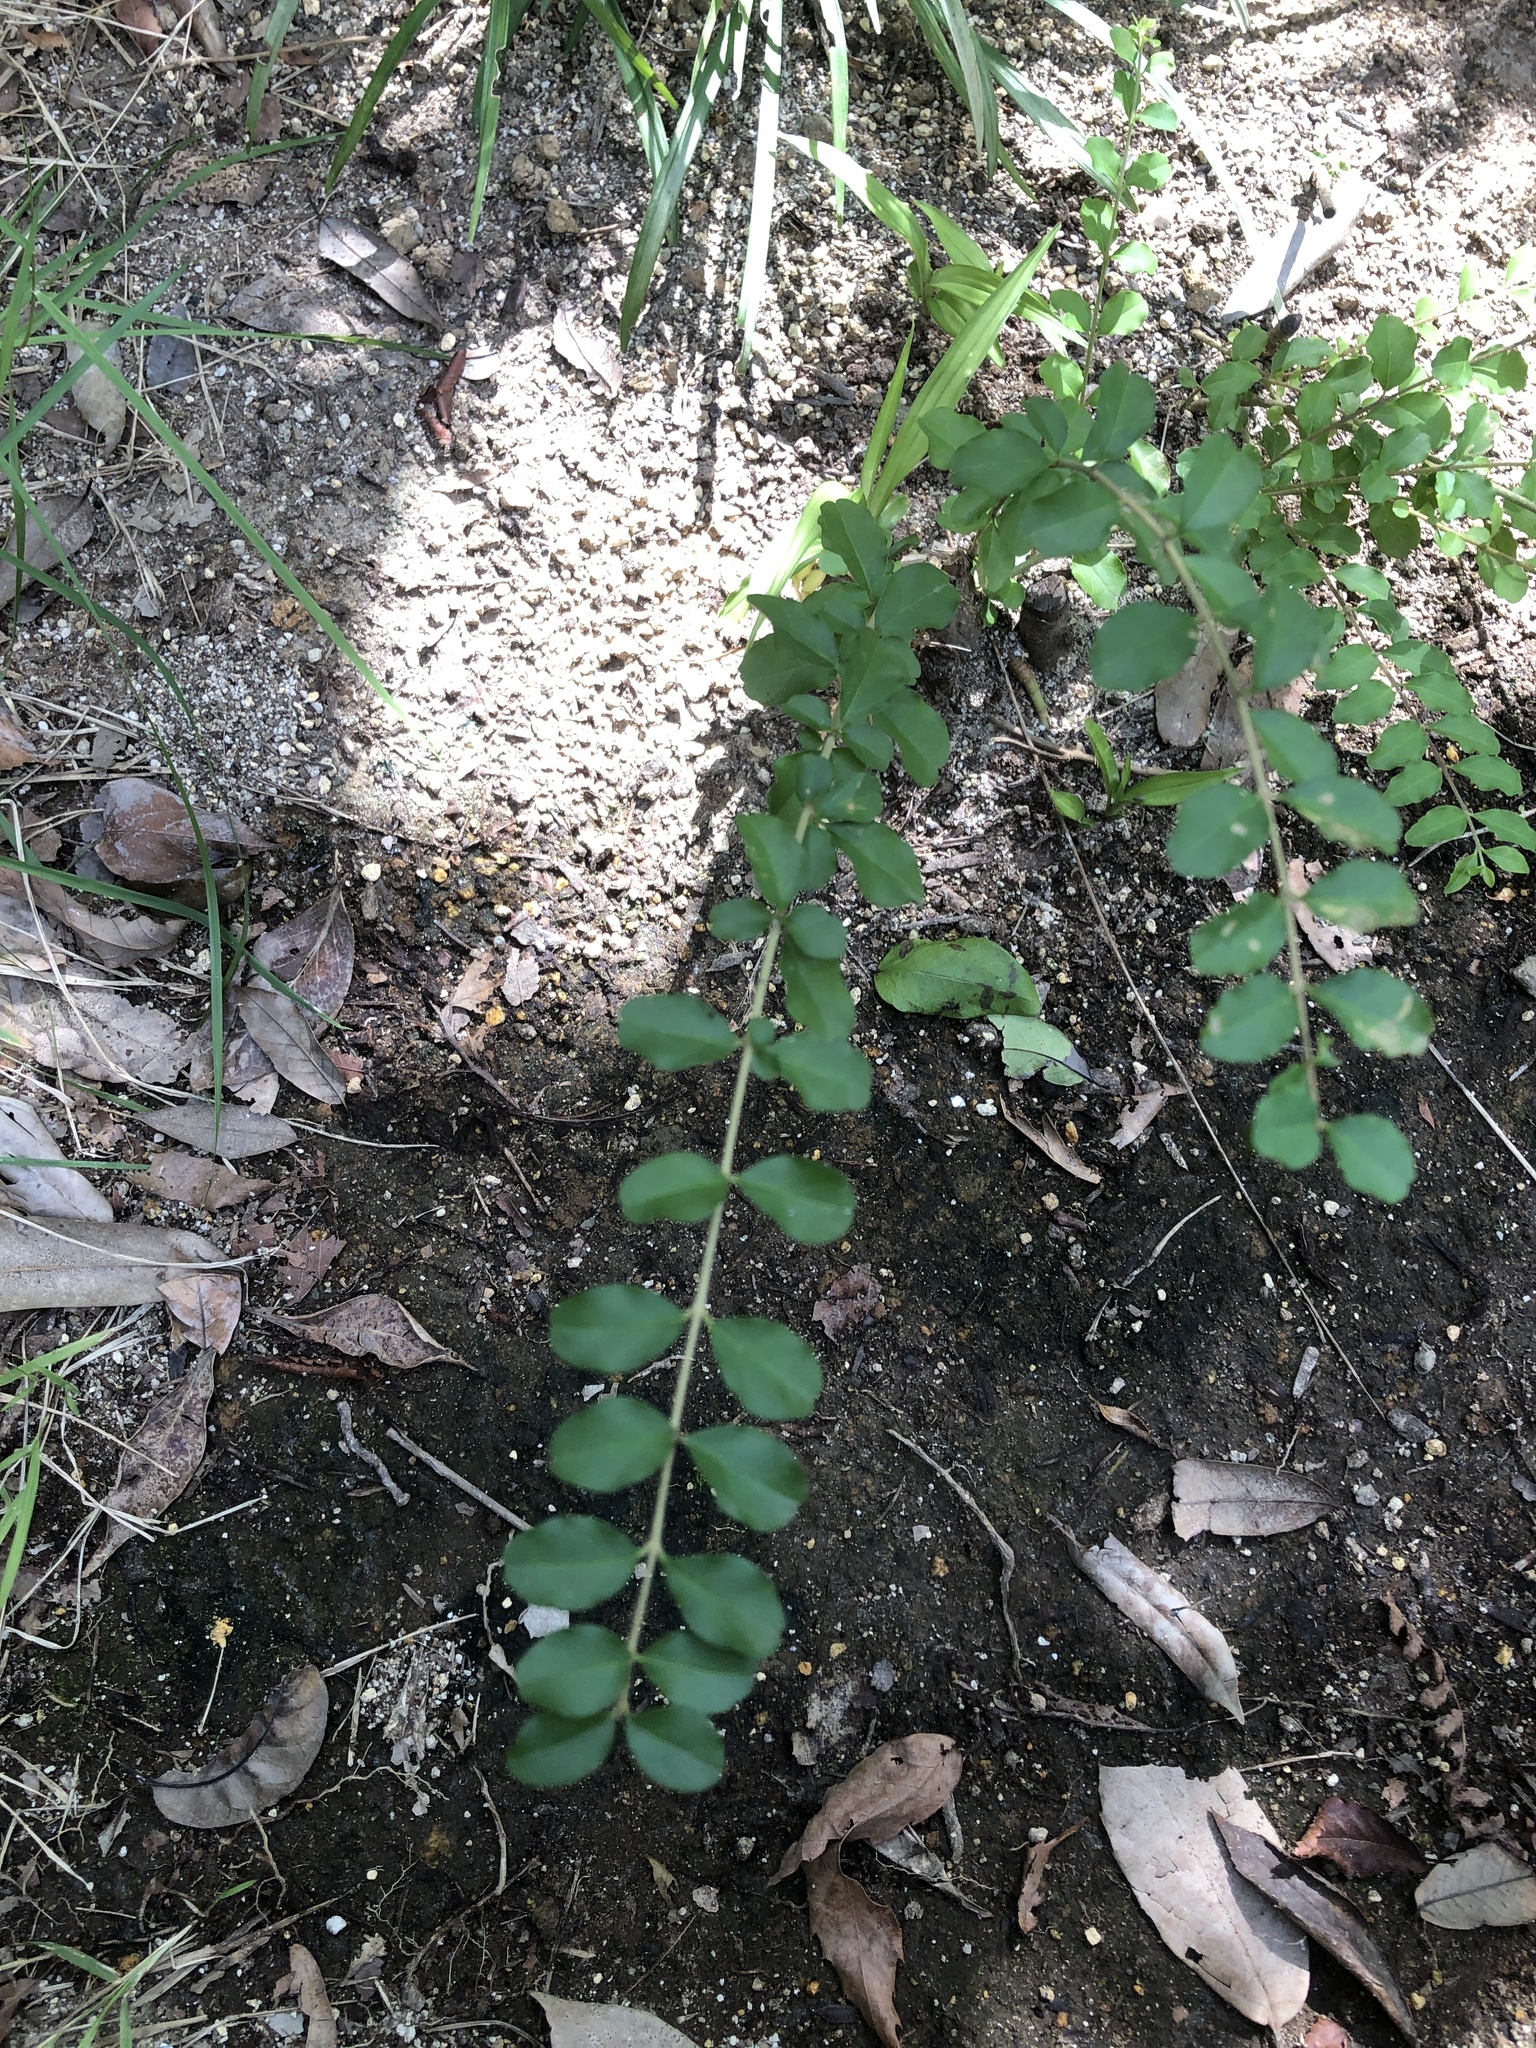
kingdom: Plantae
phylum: Tracheophyta
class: Magnoliopsida
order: Lamiales
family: Oleaceae
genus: Ligustrum
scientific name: Ligustrum obtusifolium
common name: Border privet
